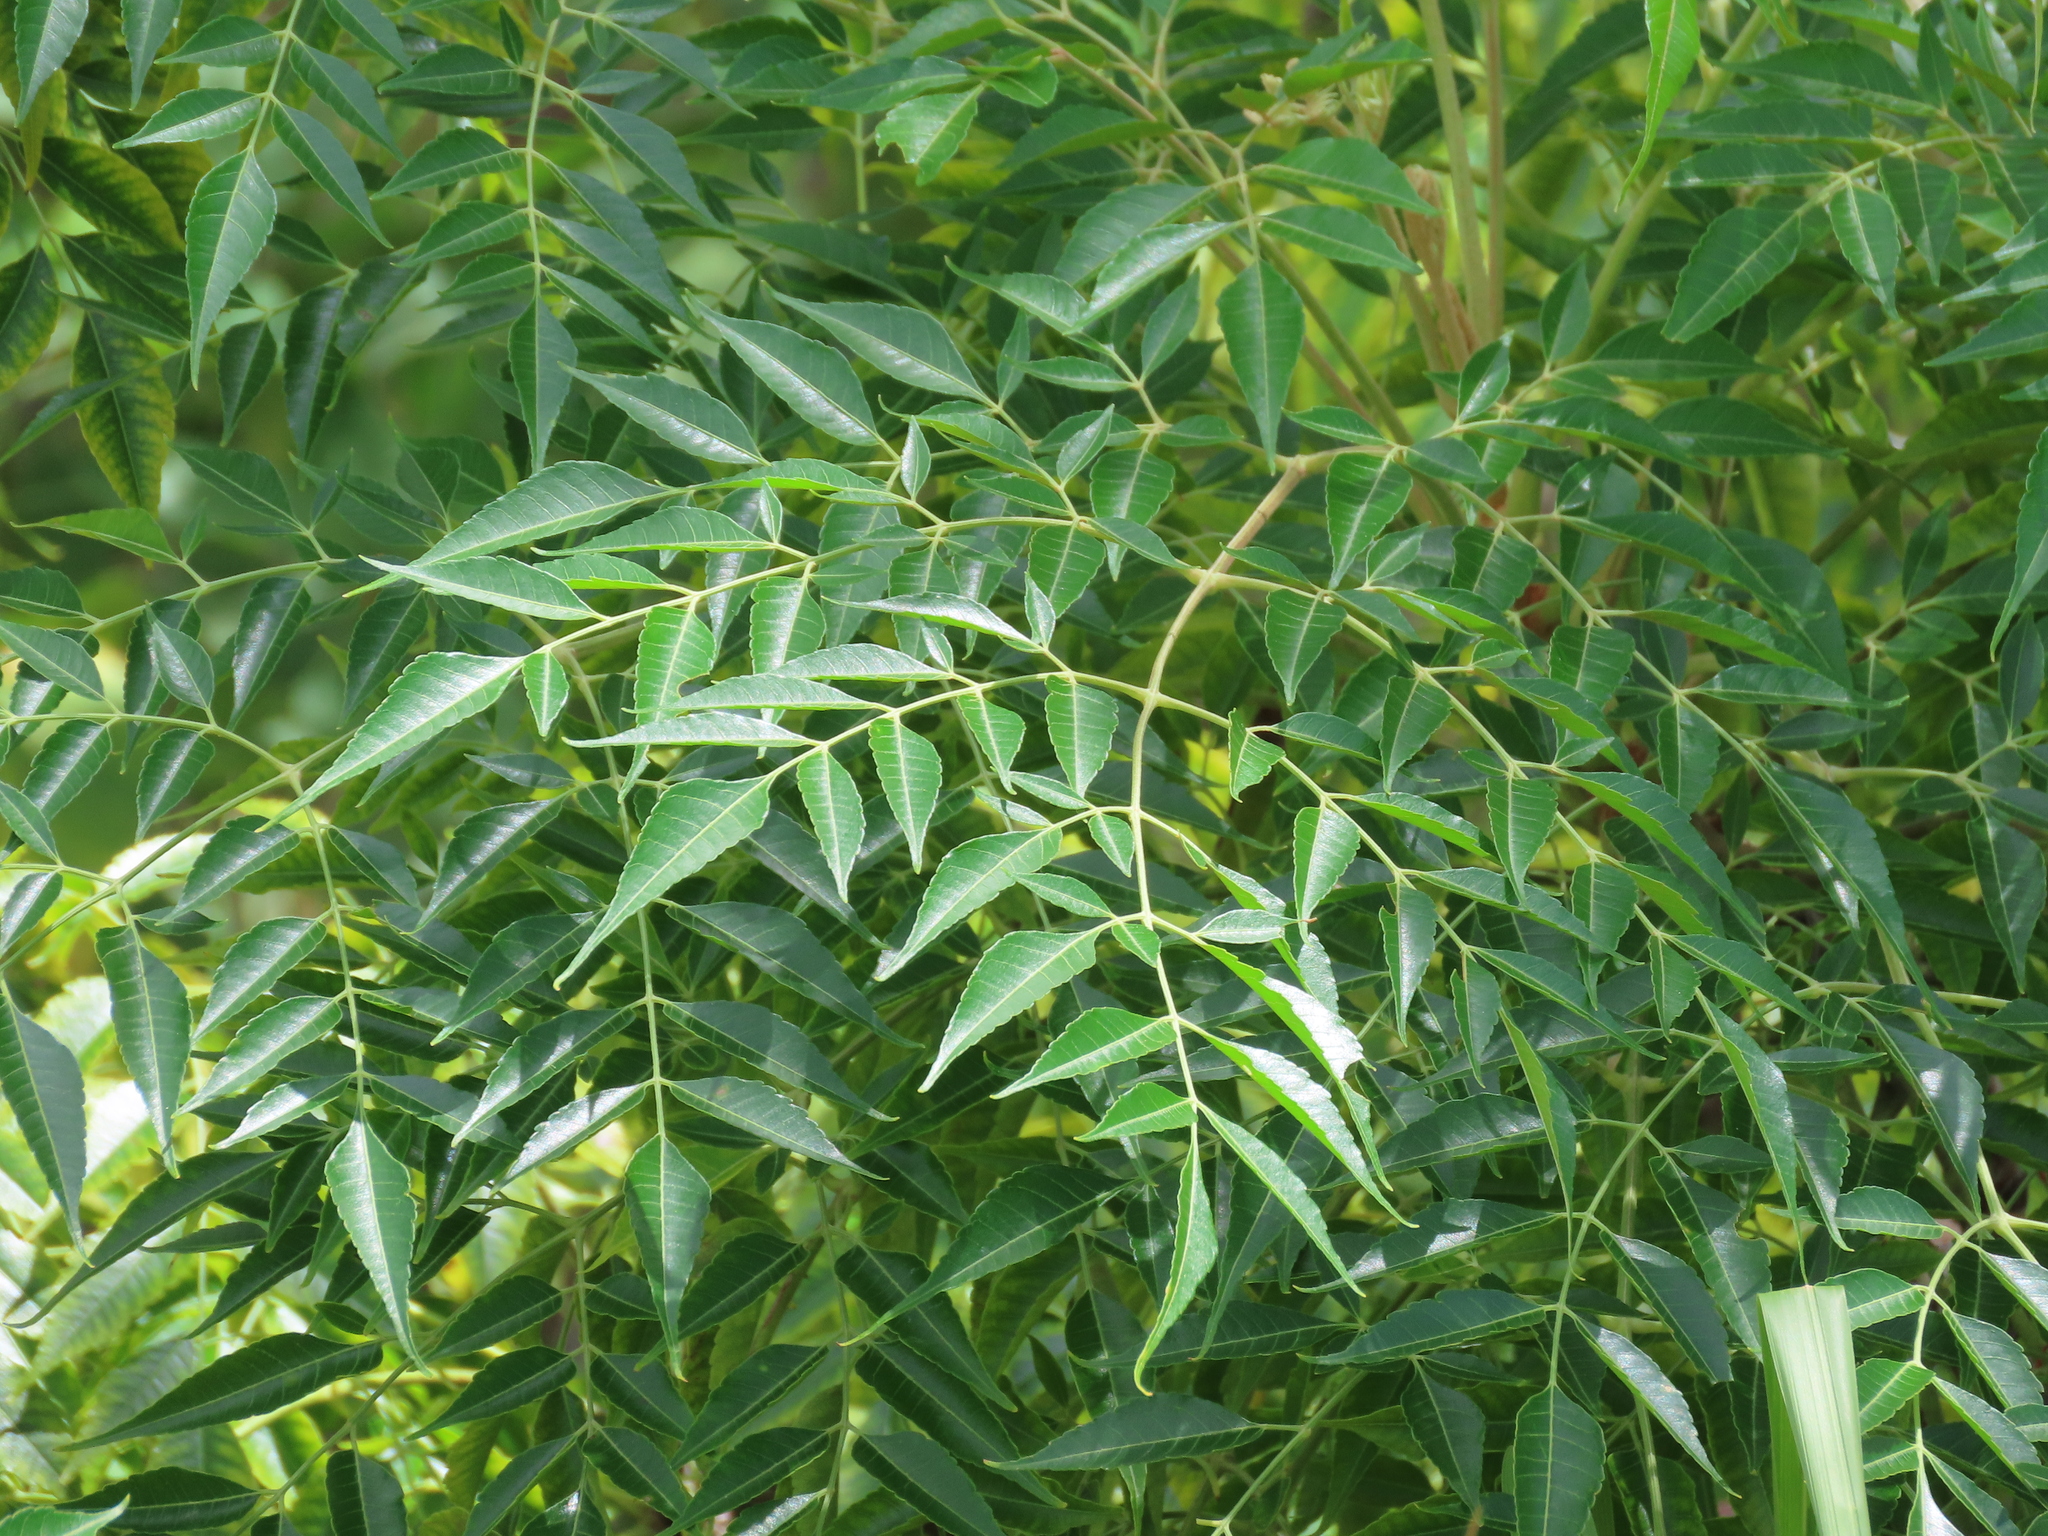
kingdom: Plantae
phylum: Tracheophyta
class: Magnoliopsida
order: Sapindales
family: Meliaceae
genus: Melia
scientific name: Melia azedarach
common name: Chinaberrytree
